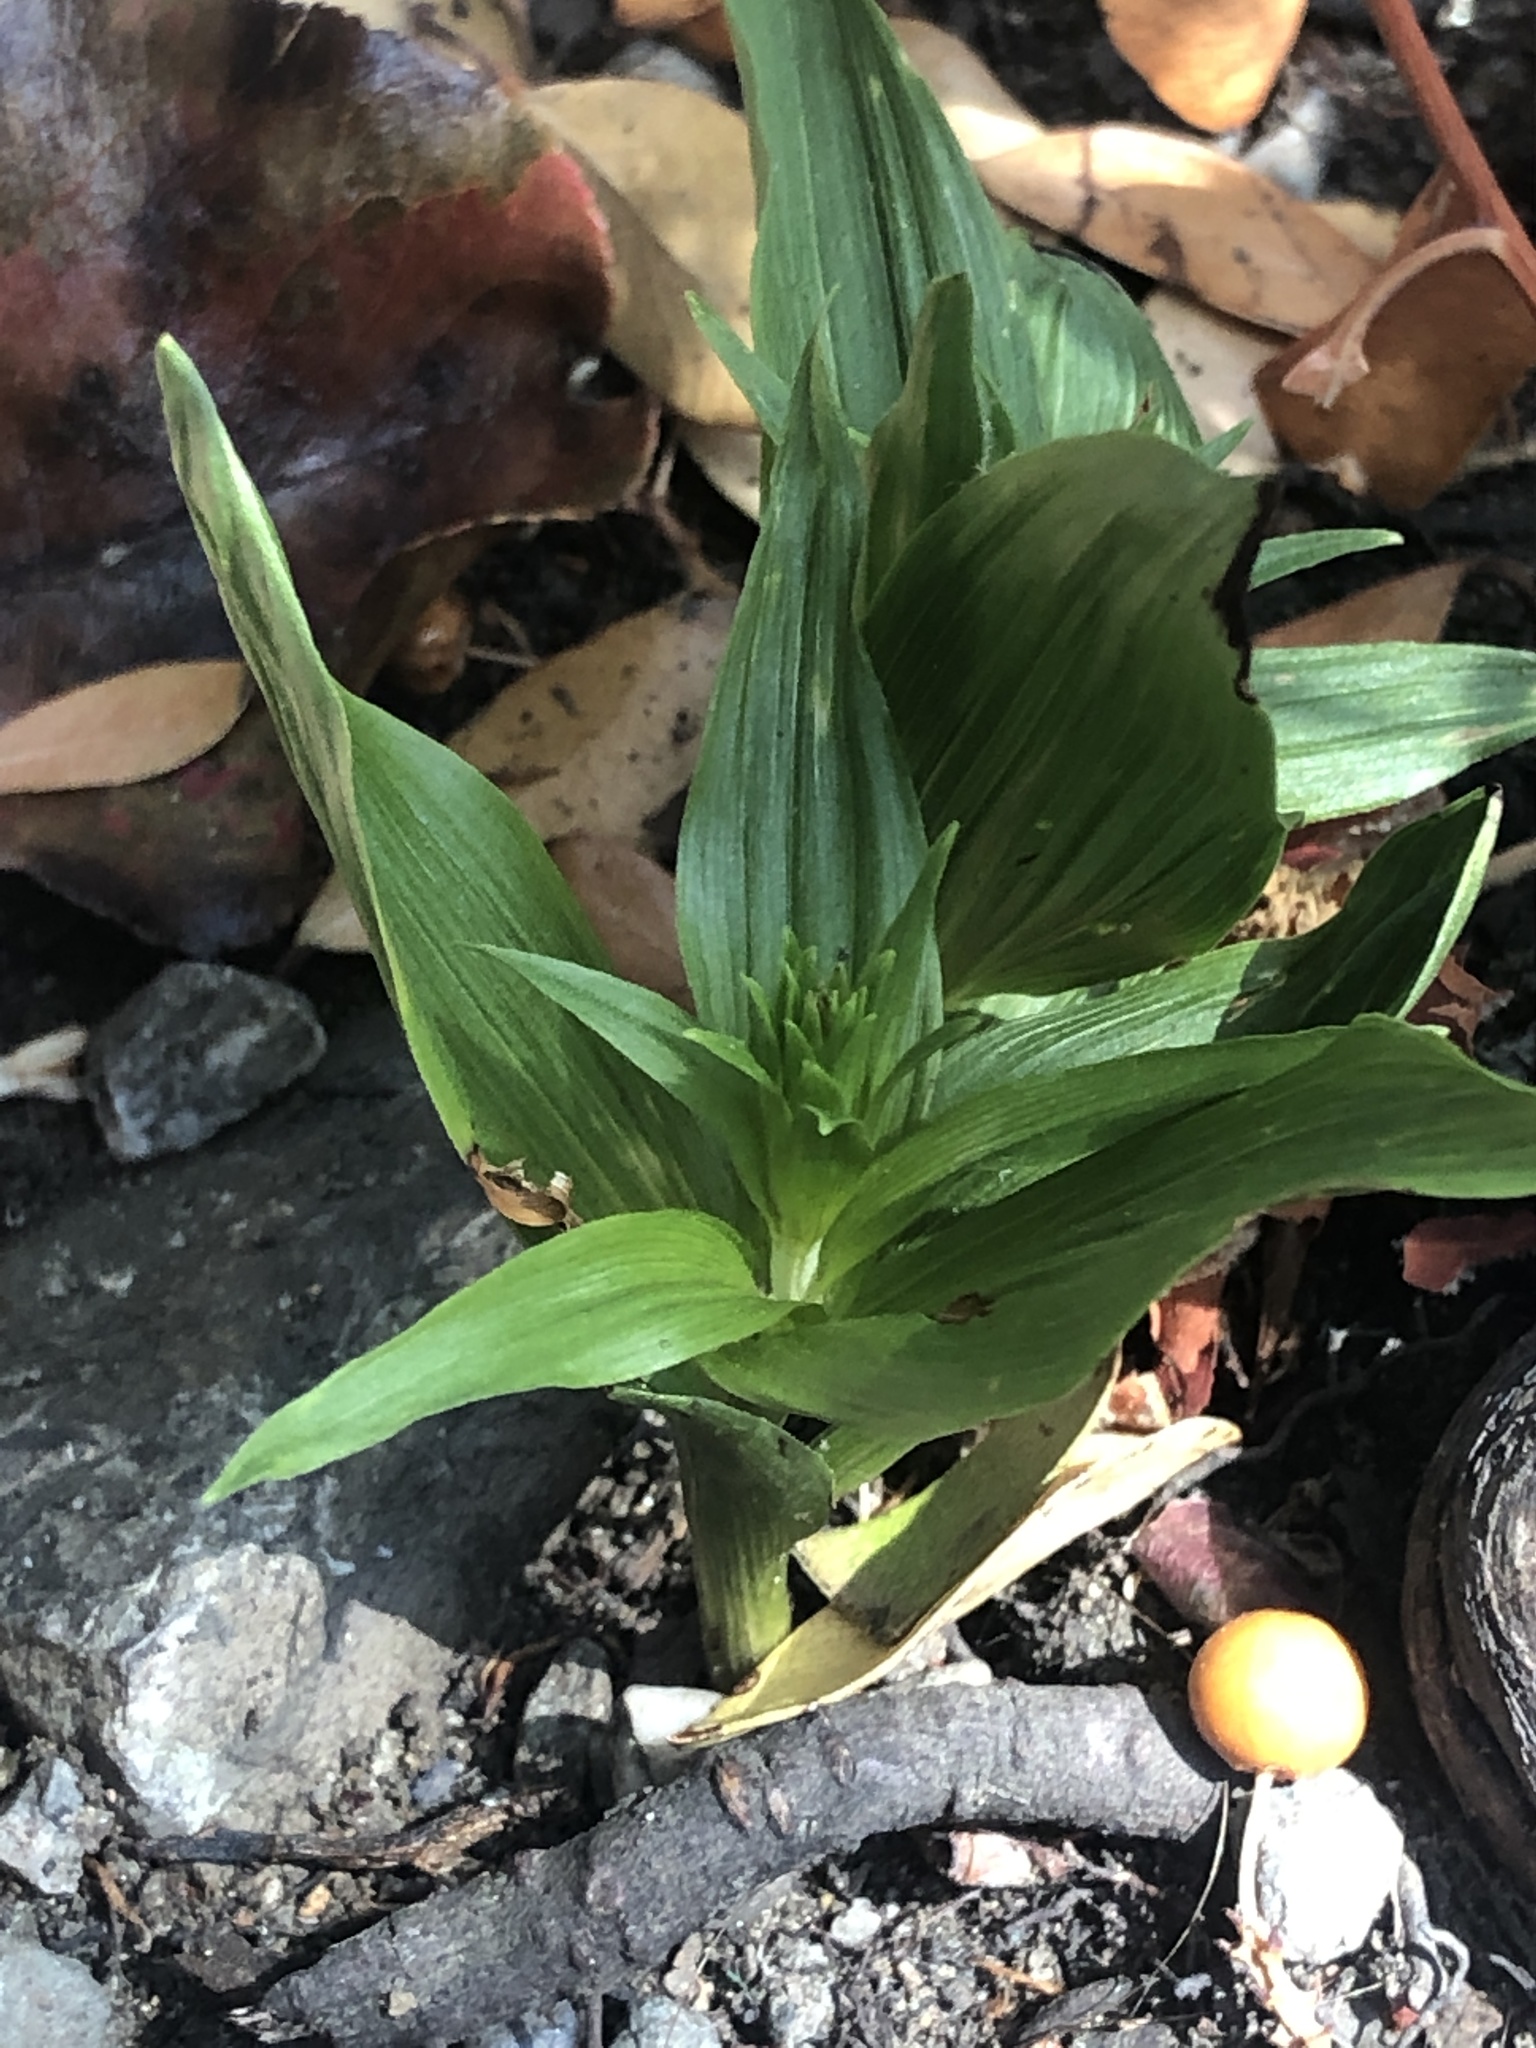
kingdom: Plantae
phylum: Tracheophyta
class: Liliopsida
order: Asparagales
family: Orchidaceae
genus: Epipactis
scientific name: Epipactis helleborine
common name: Broad-leaved helleborine
